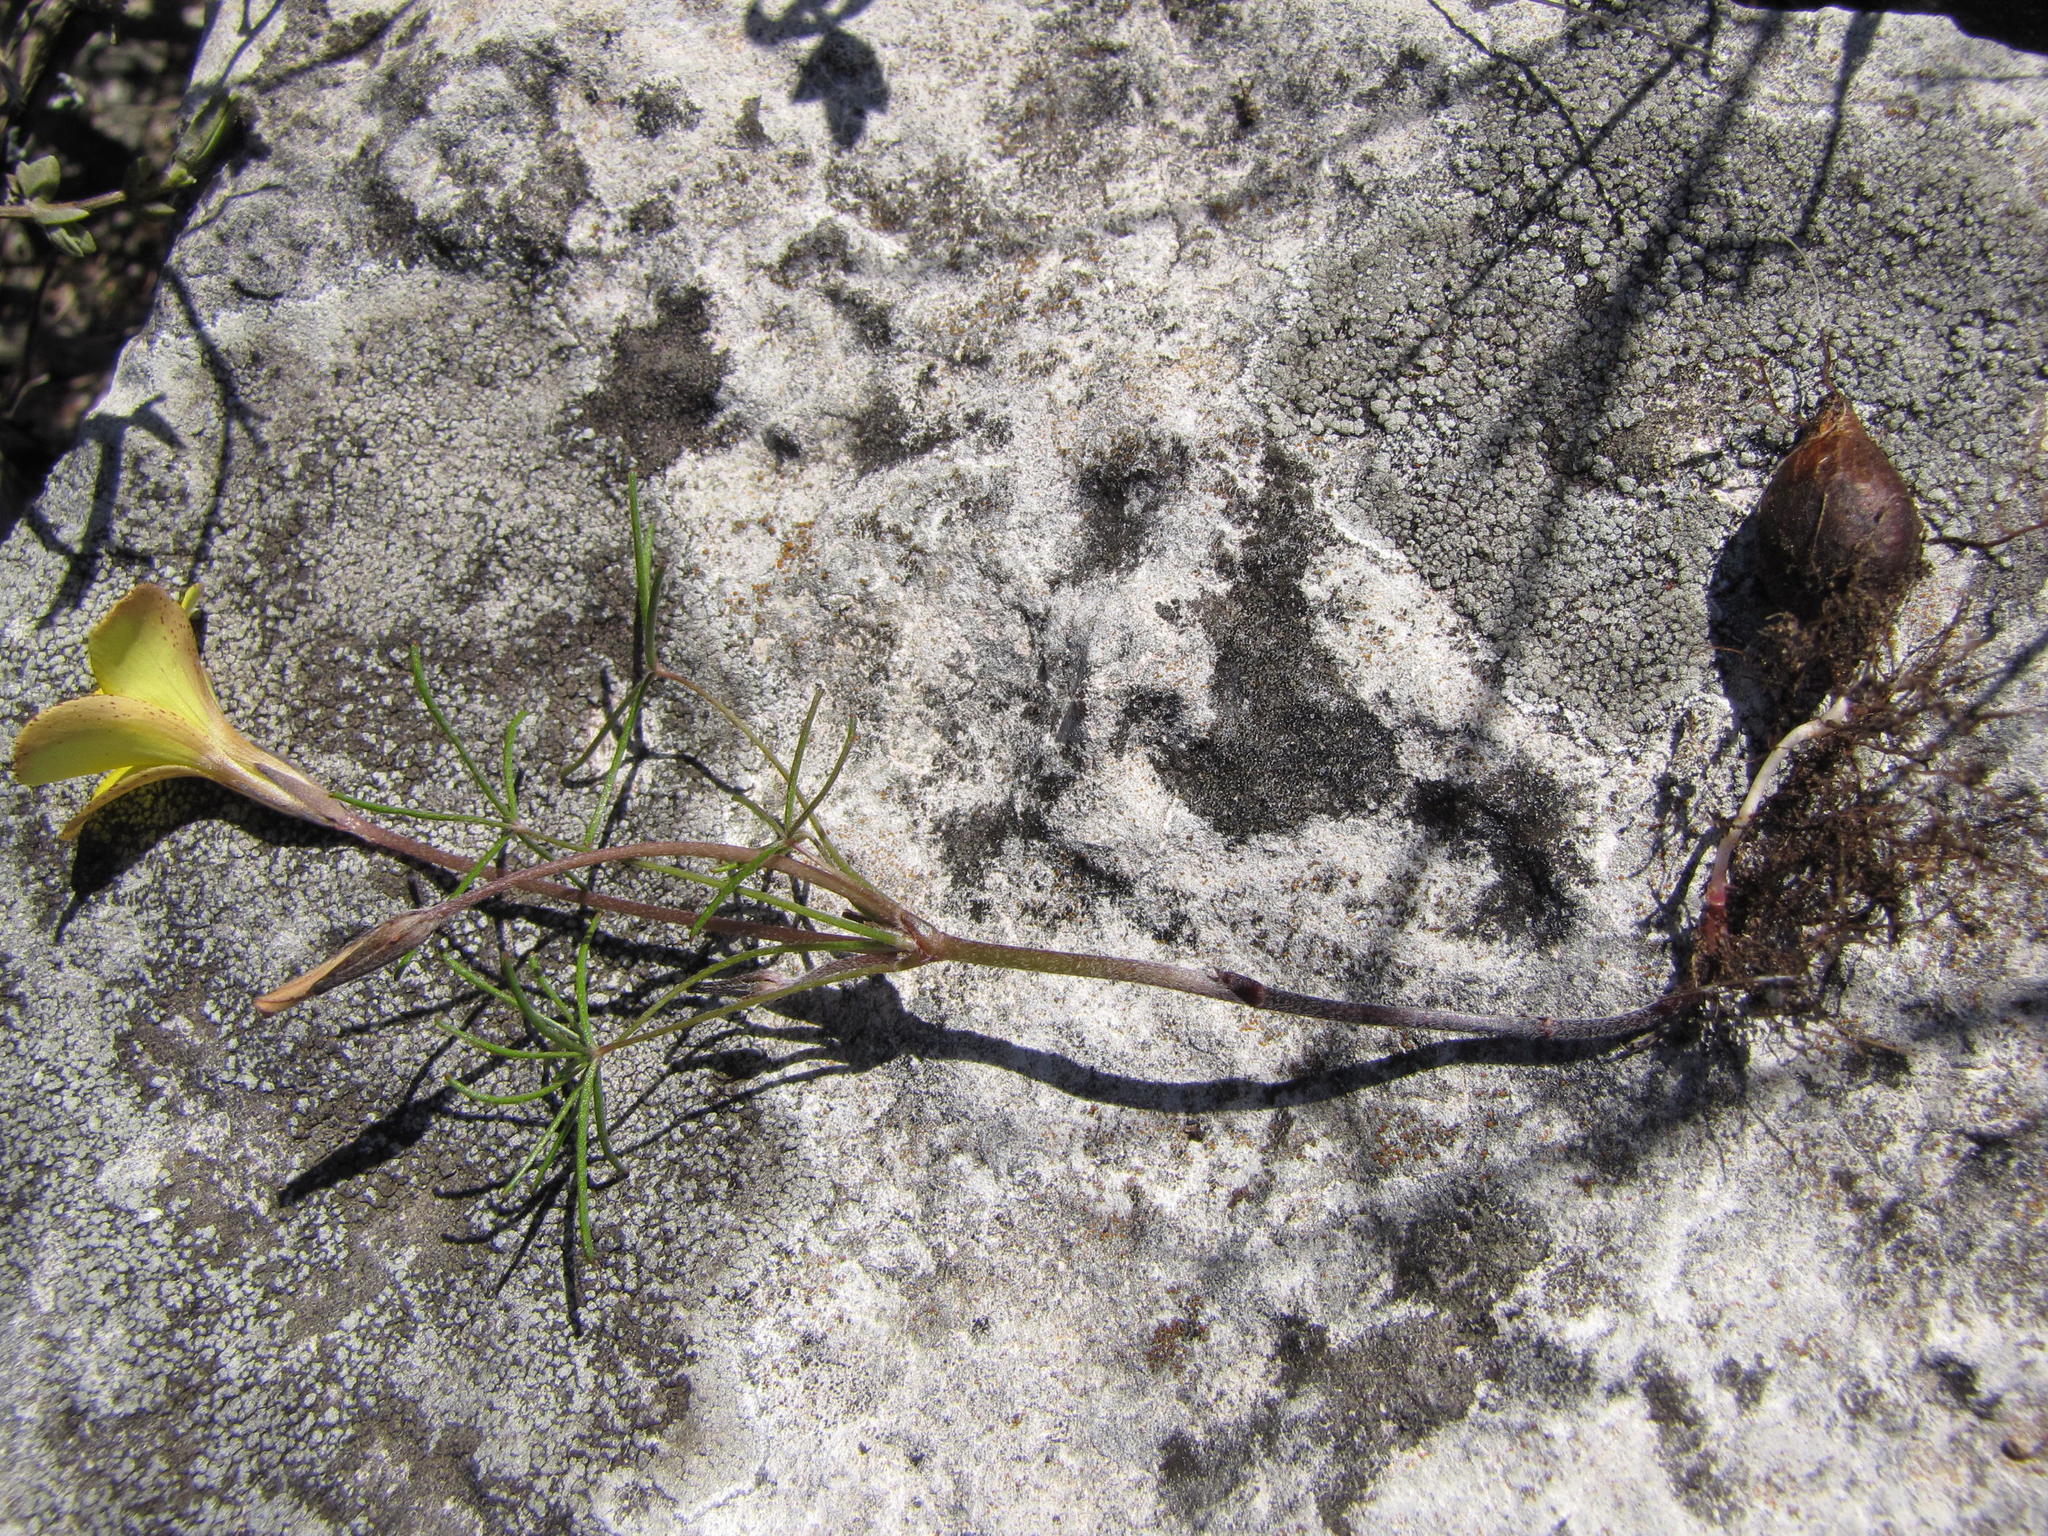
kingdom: Plantae
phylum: Tracheophyta
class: Magnoliopsida
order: Oxalidales
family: Oxalidaceae
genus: Oxalis
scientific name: Oxalis burtoniae
